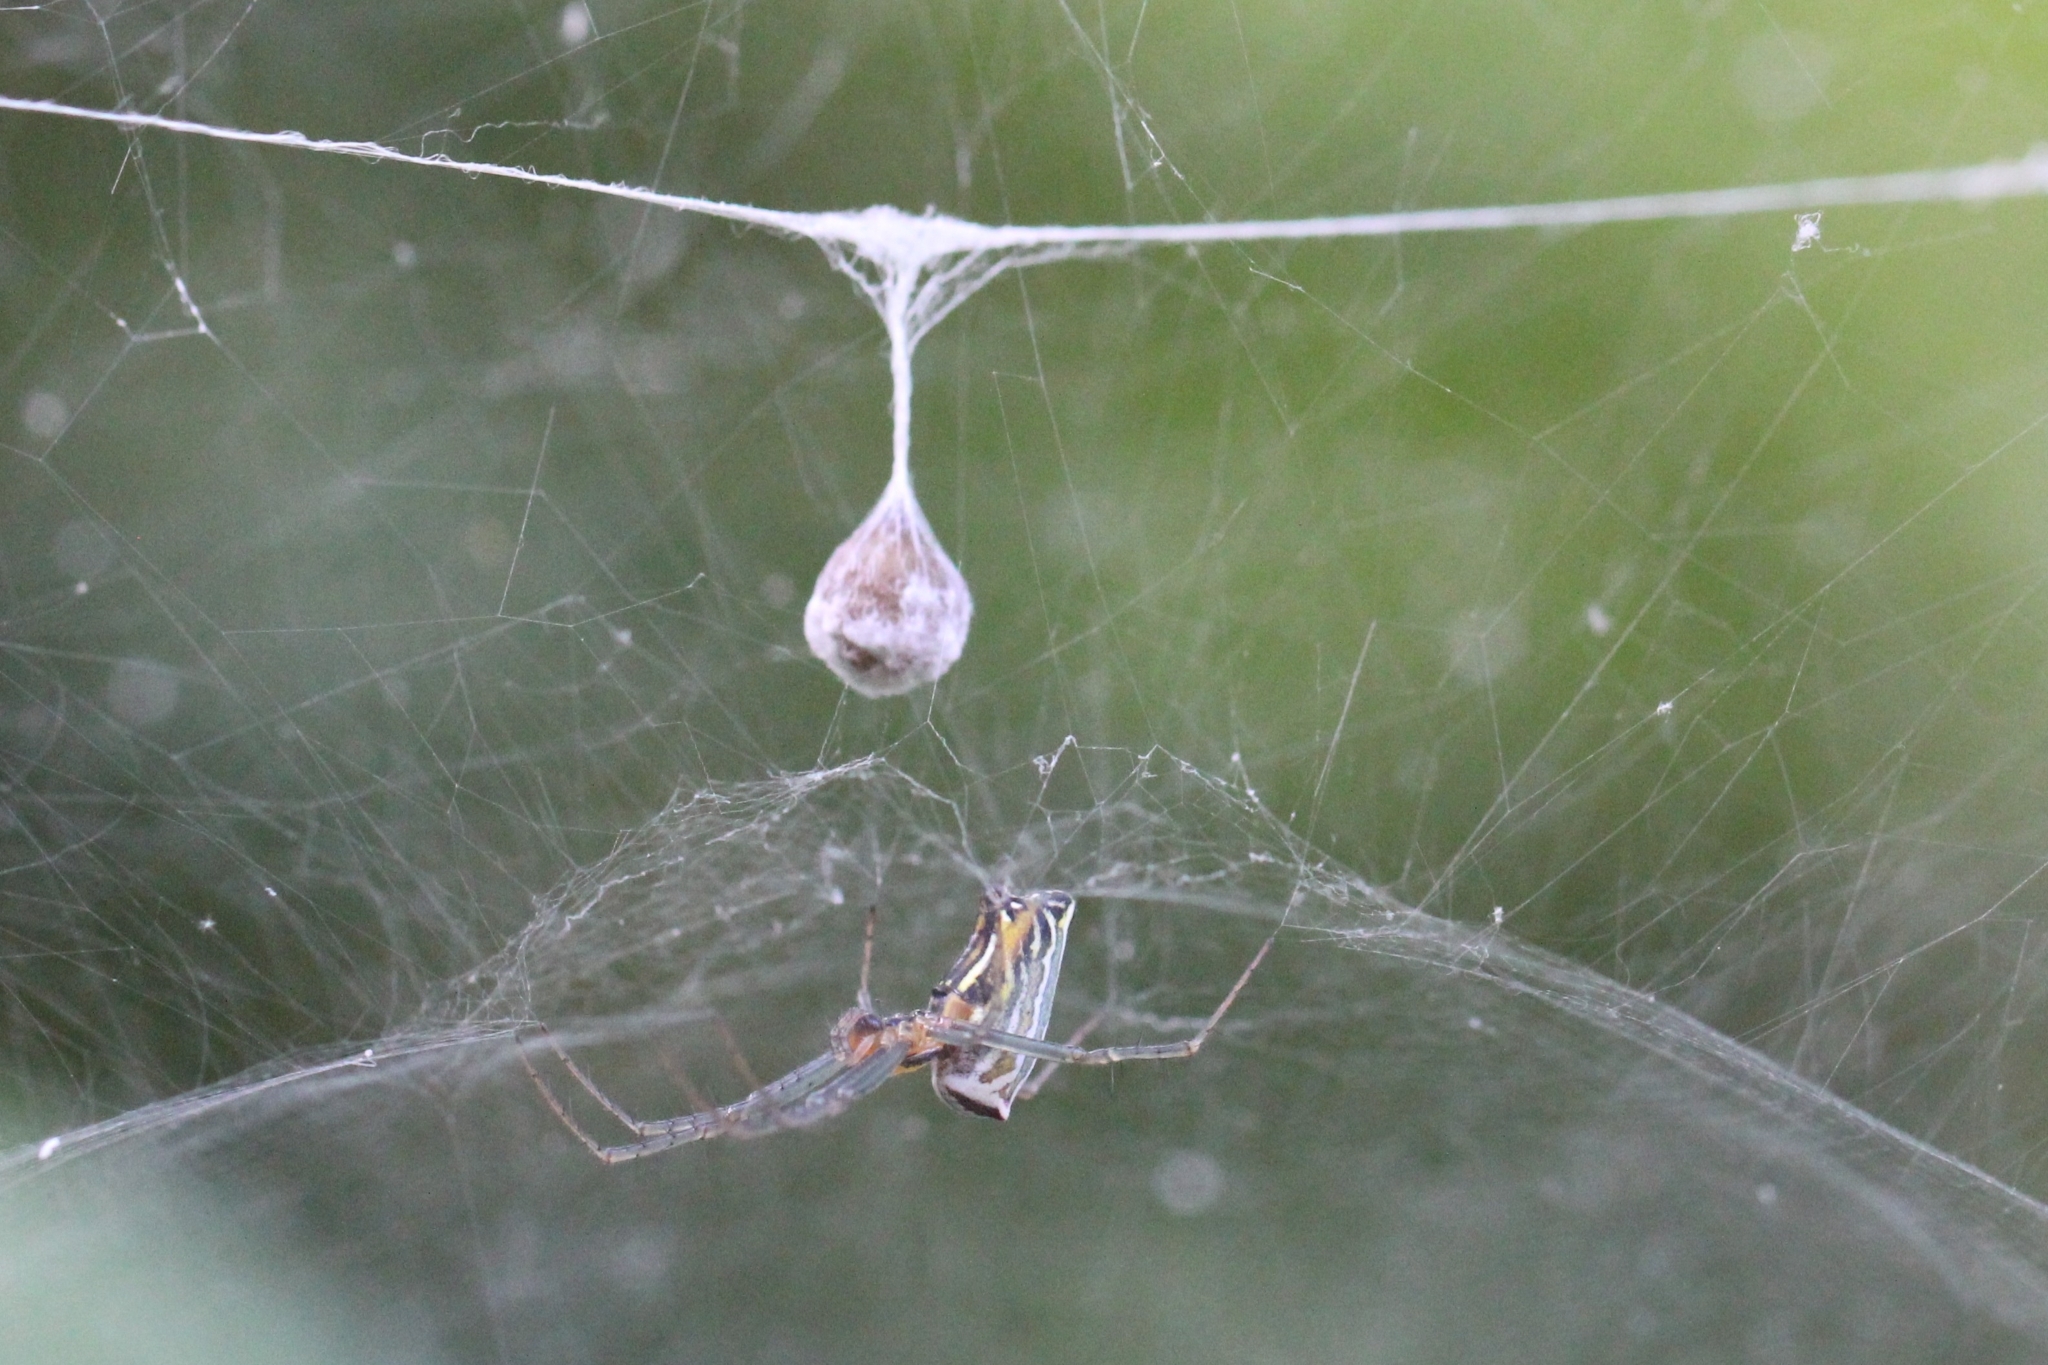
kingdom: Animalia
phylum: Arthropoda
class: Arachnida
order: Araneae
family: Araneidae
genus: Mecynogea
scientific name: Mecynogea lemniscata
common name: Orb weavers
